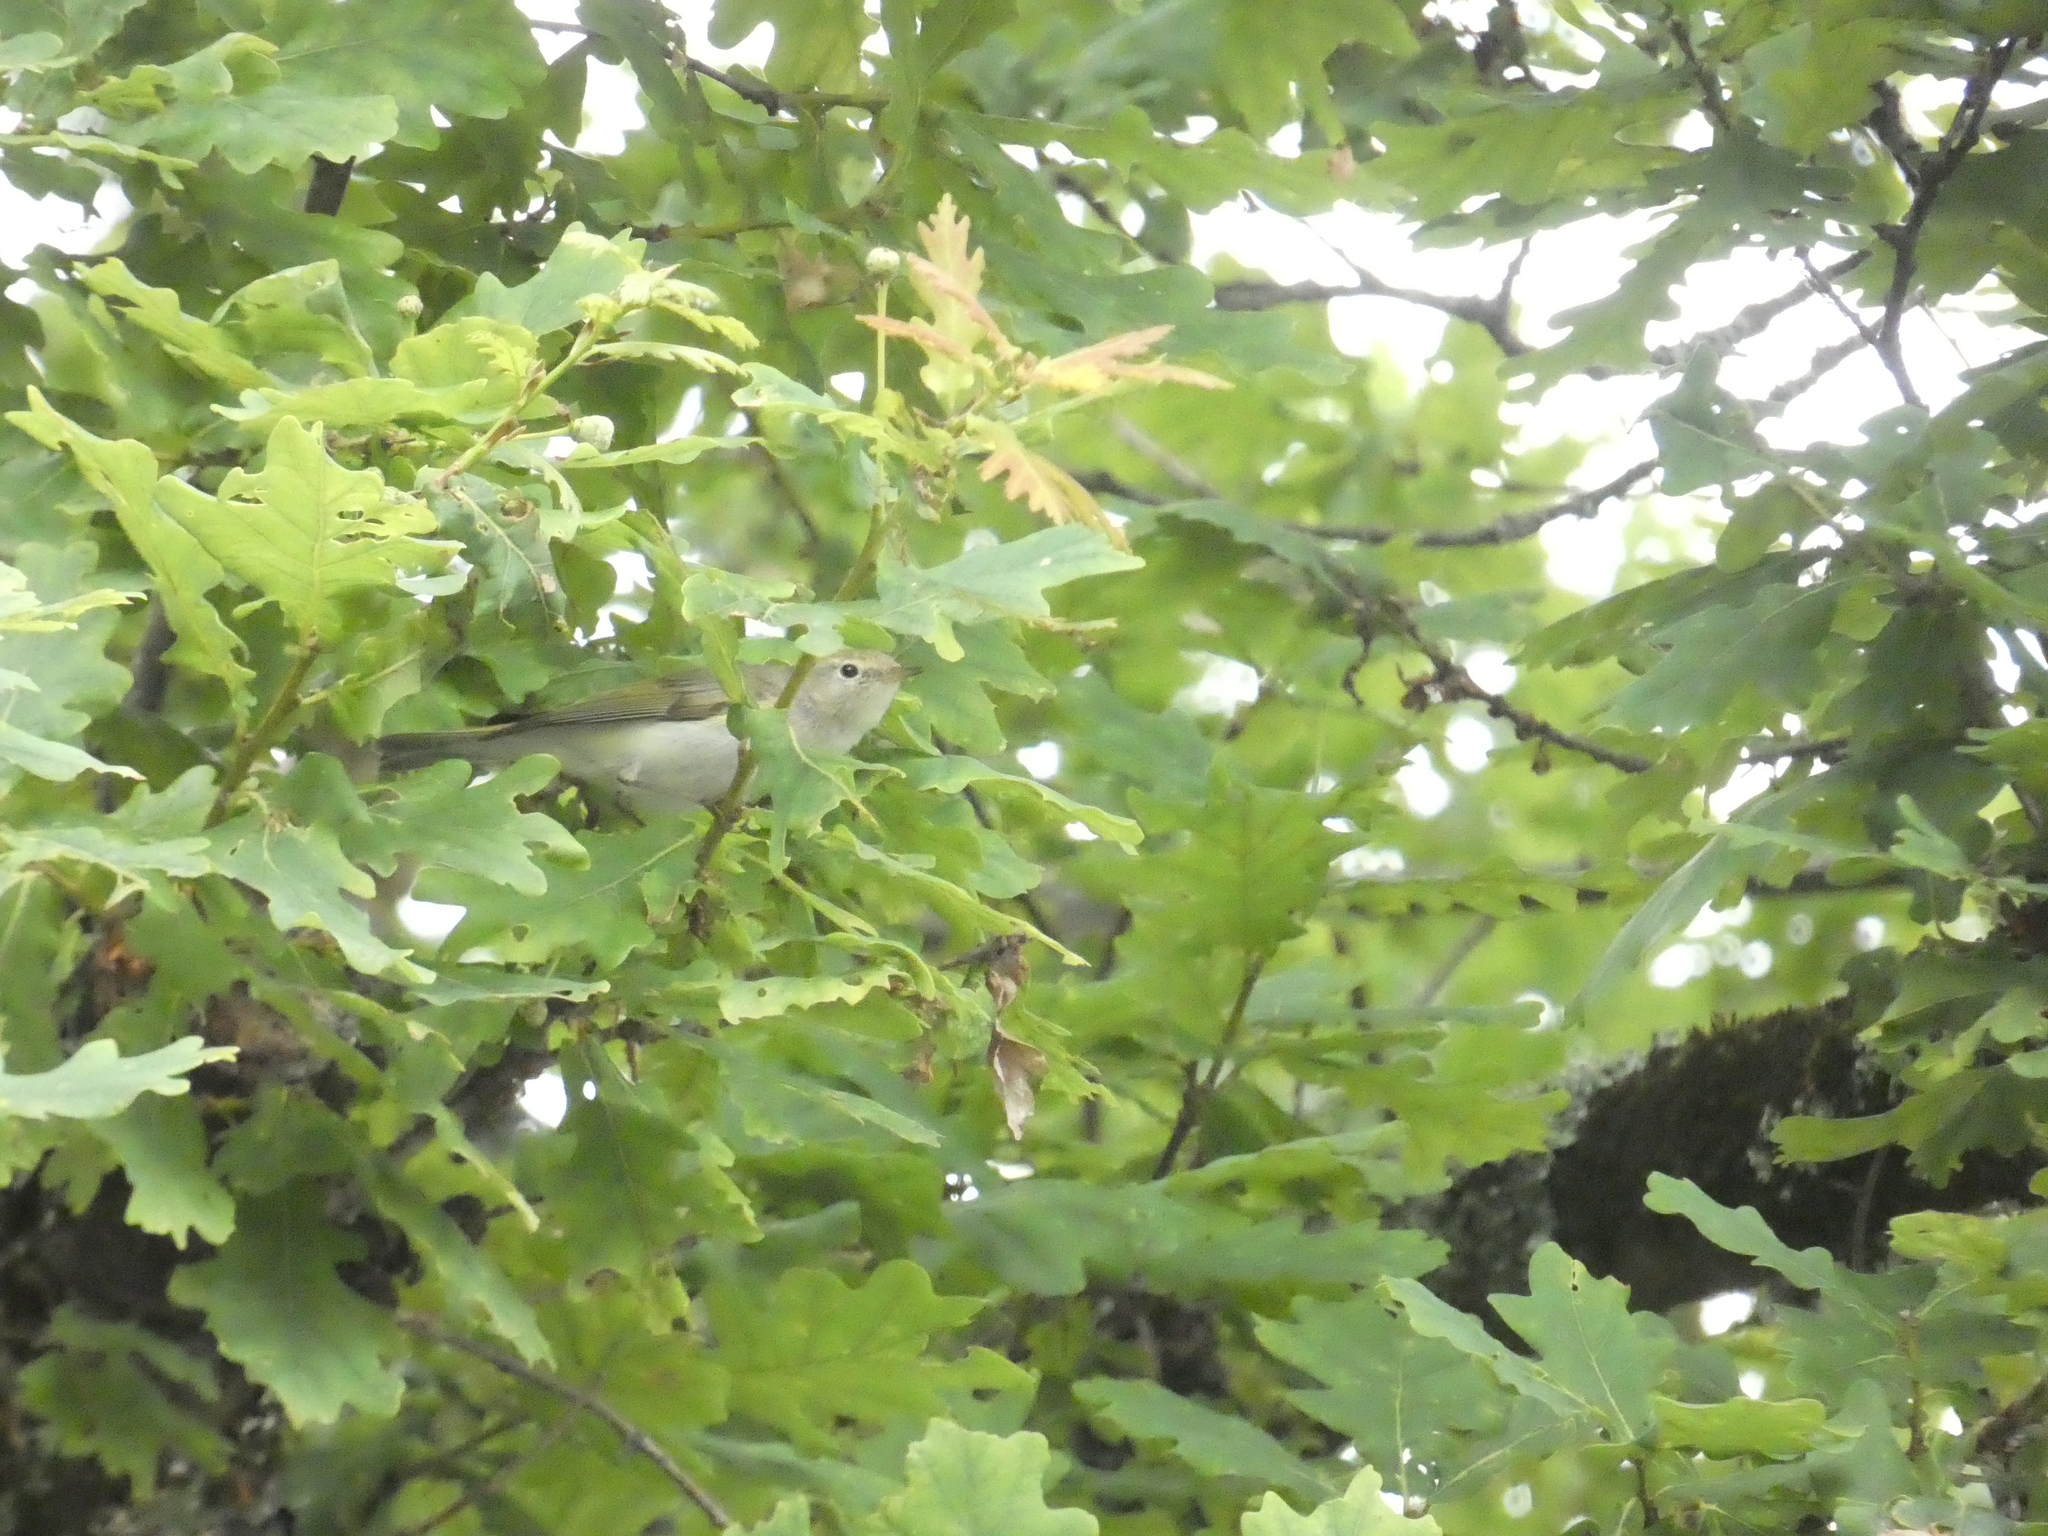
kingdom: Animalia
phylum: Chordata
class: Aves
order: Passeriformes
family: Phylloscopidae
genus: Phylloscopus
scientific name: Phylloscopus bonelli
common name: Western bonelli's warbler
